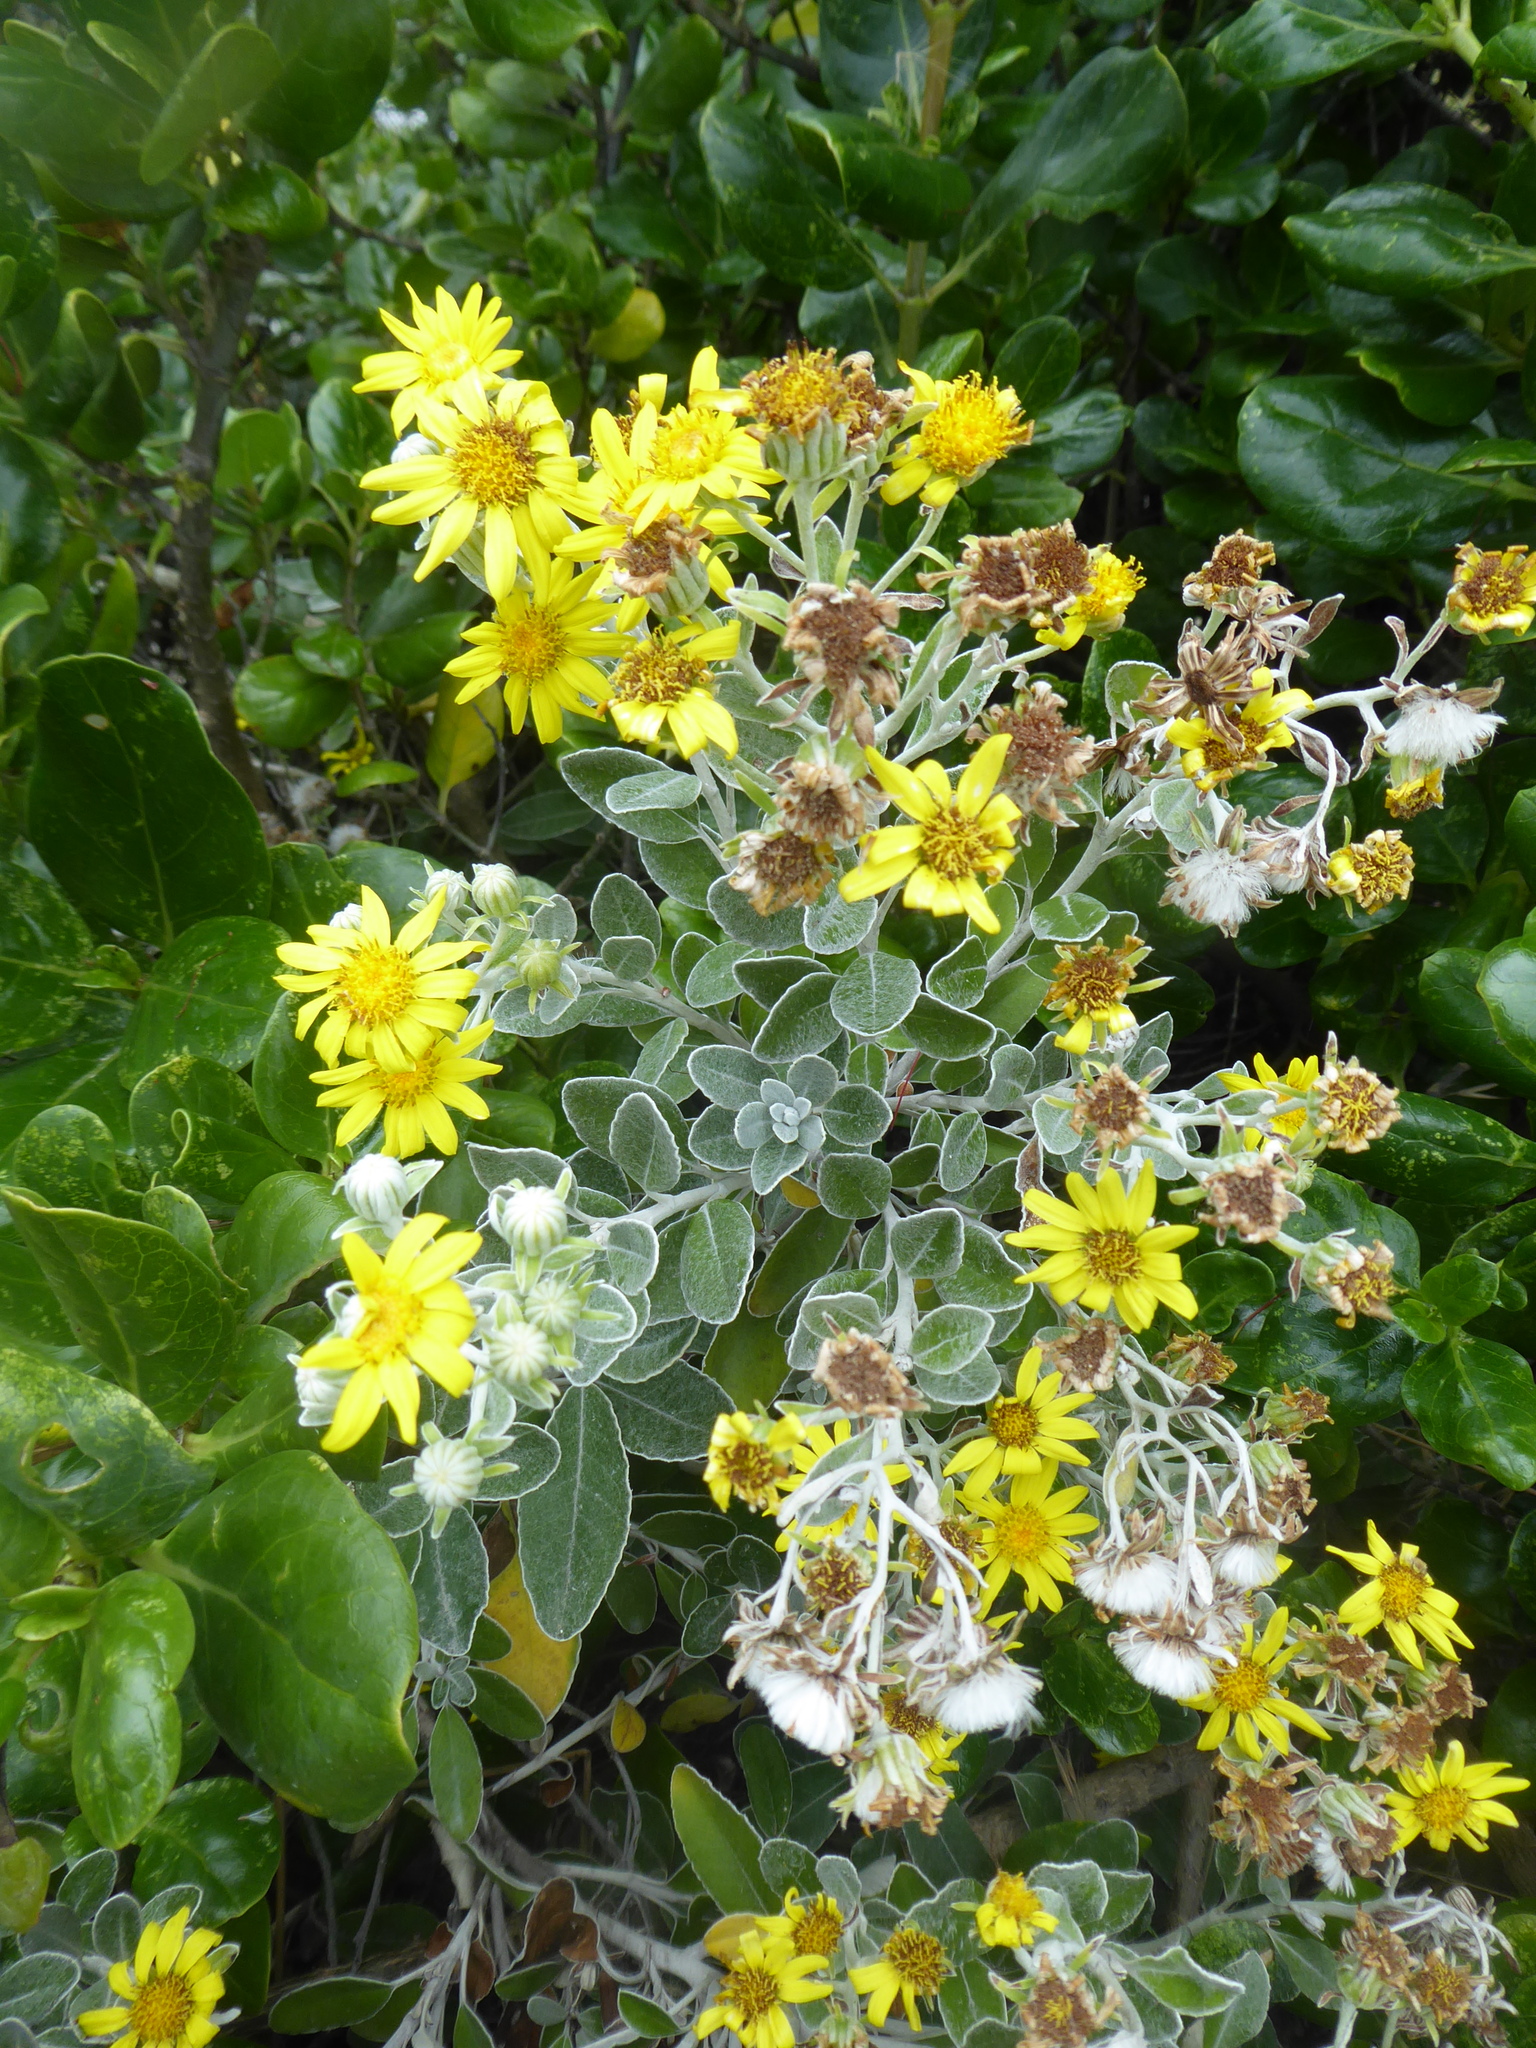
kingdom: Plantae
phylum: Tracheophyta
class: Magnoliopsida
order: Asterales
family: Asteraceae
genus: Brachyglottis
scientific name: Brachyglottis greyi
